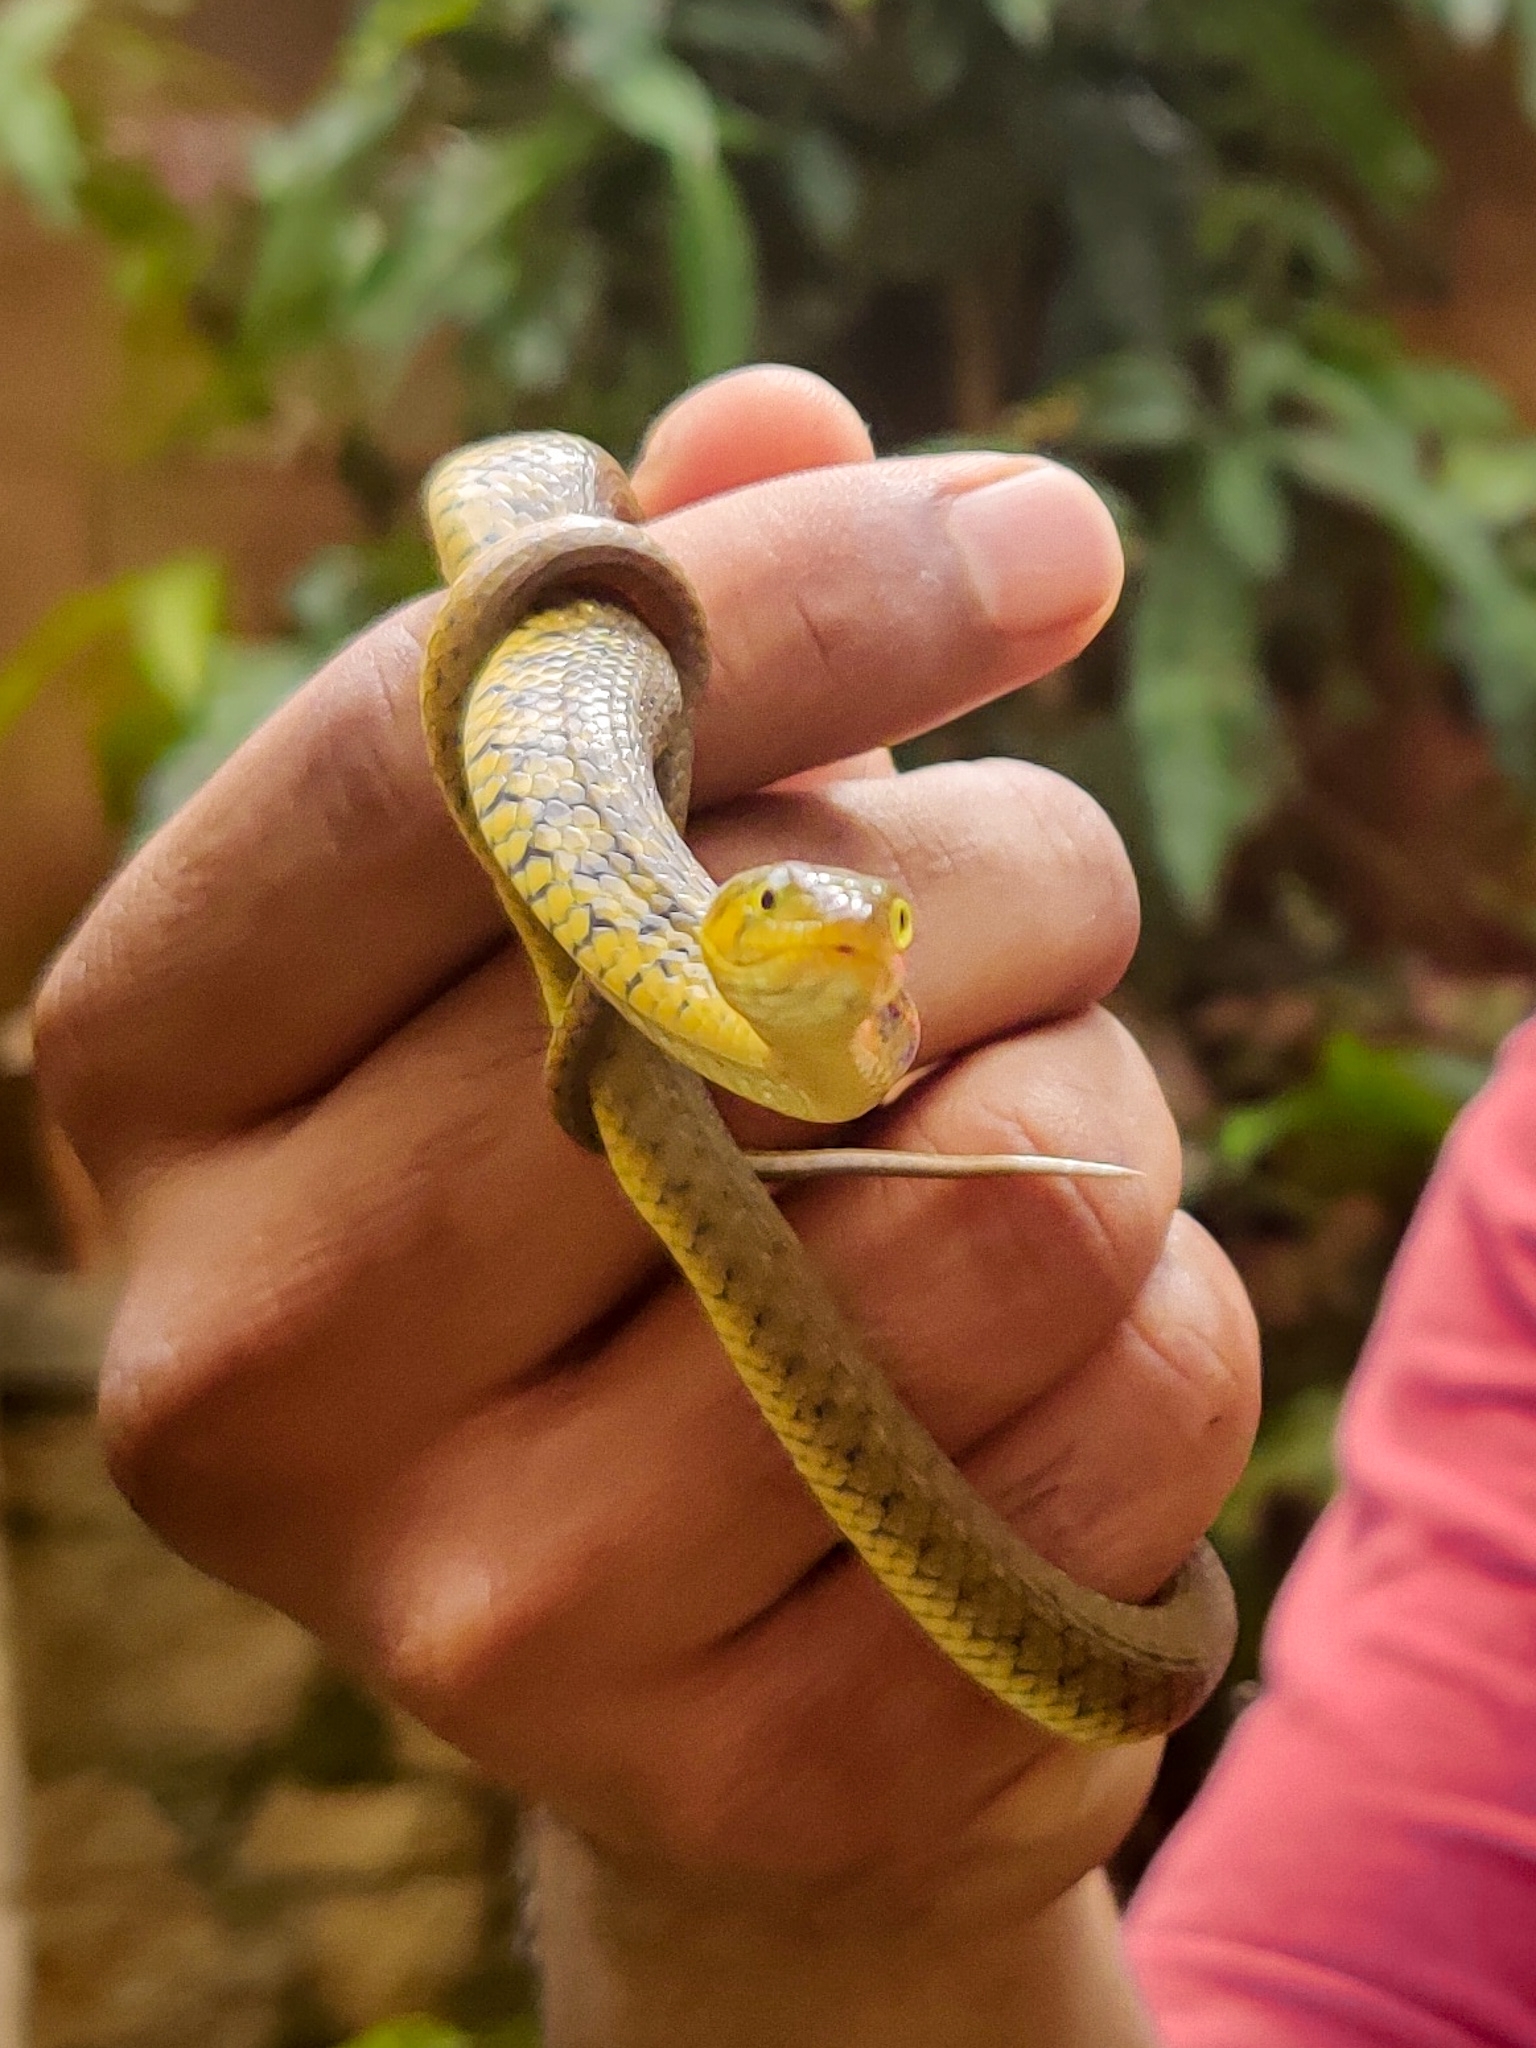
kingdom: Animalia
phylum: Chordata
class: Squamata
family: Colubridae
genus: Fowlea
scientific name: Fowlea piscator
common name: Asiatic water snake
